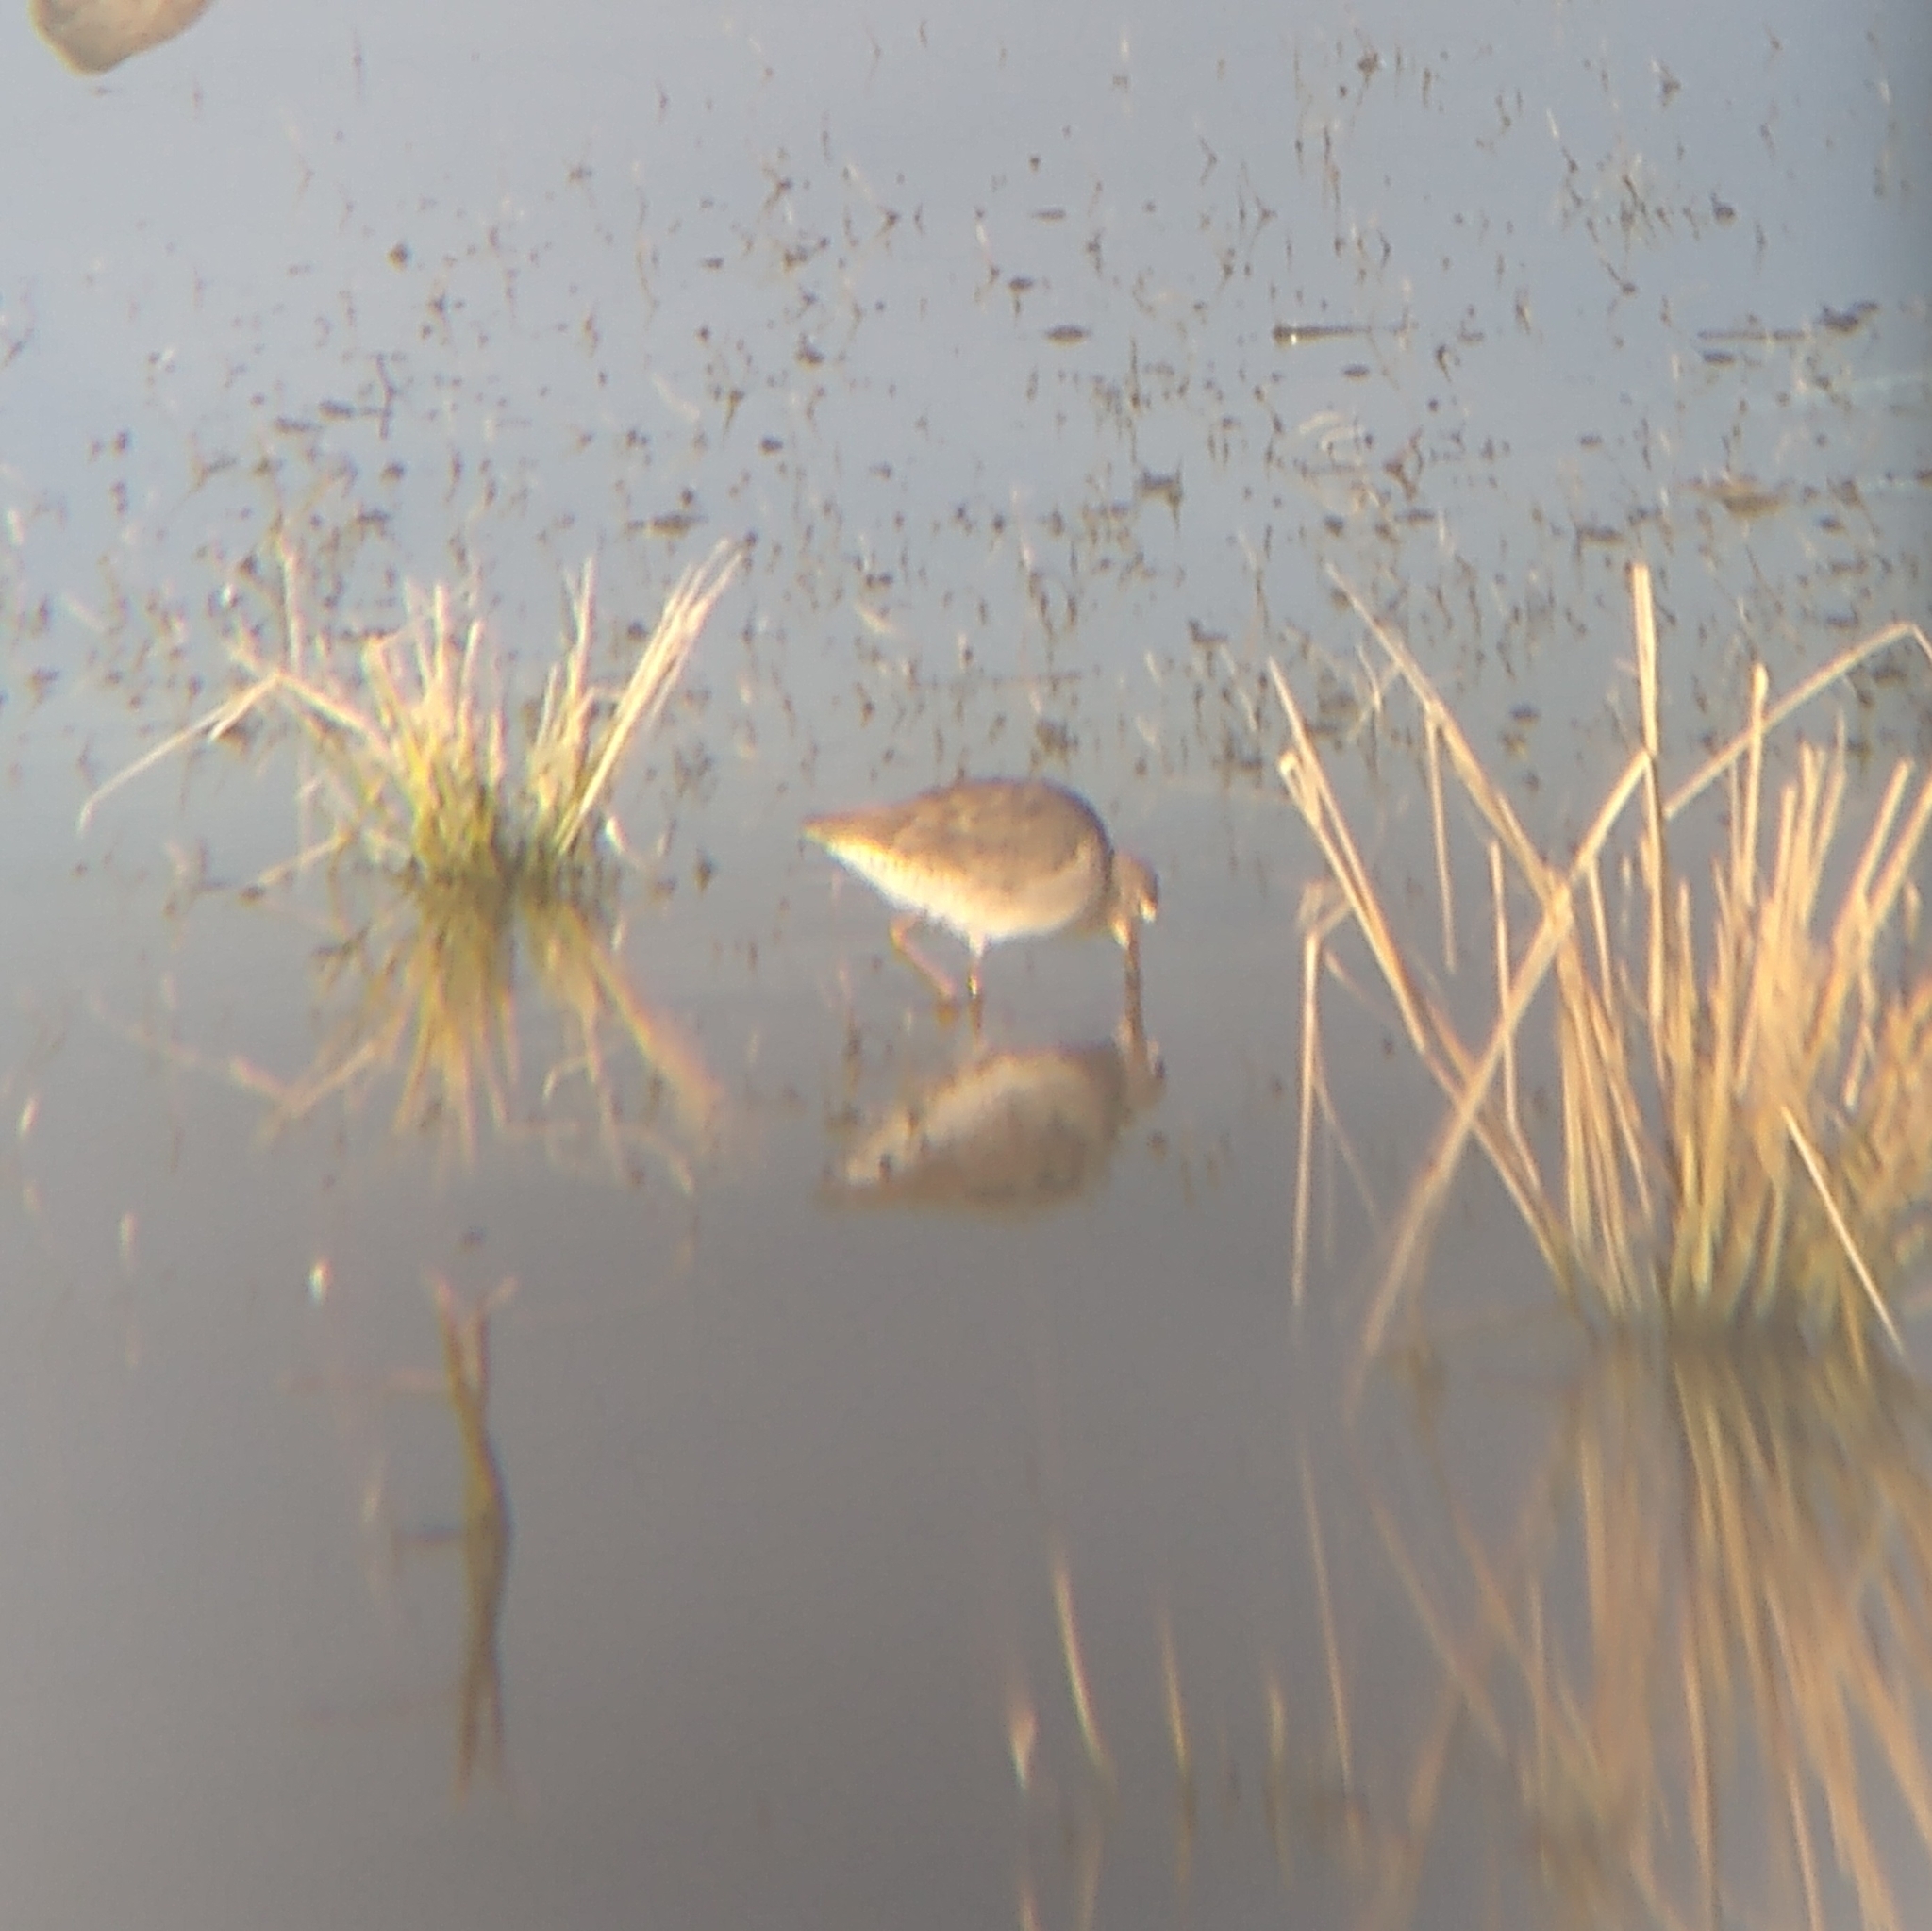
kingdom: Animalia
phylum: Chordata
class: Aves
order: Charadriiformes
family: Scolopacidae
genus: Limnodromus
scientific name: Limnodromus scolopaceus
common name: Long-billed dowitcher
